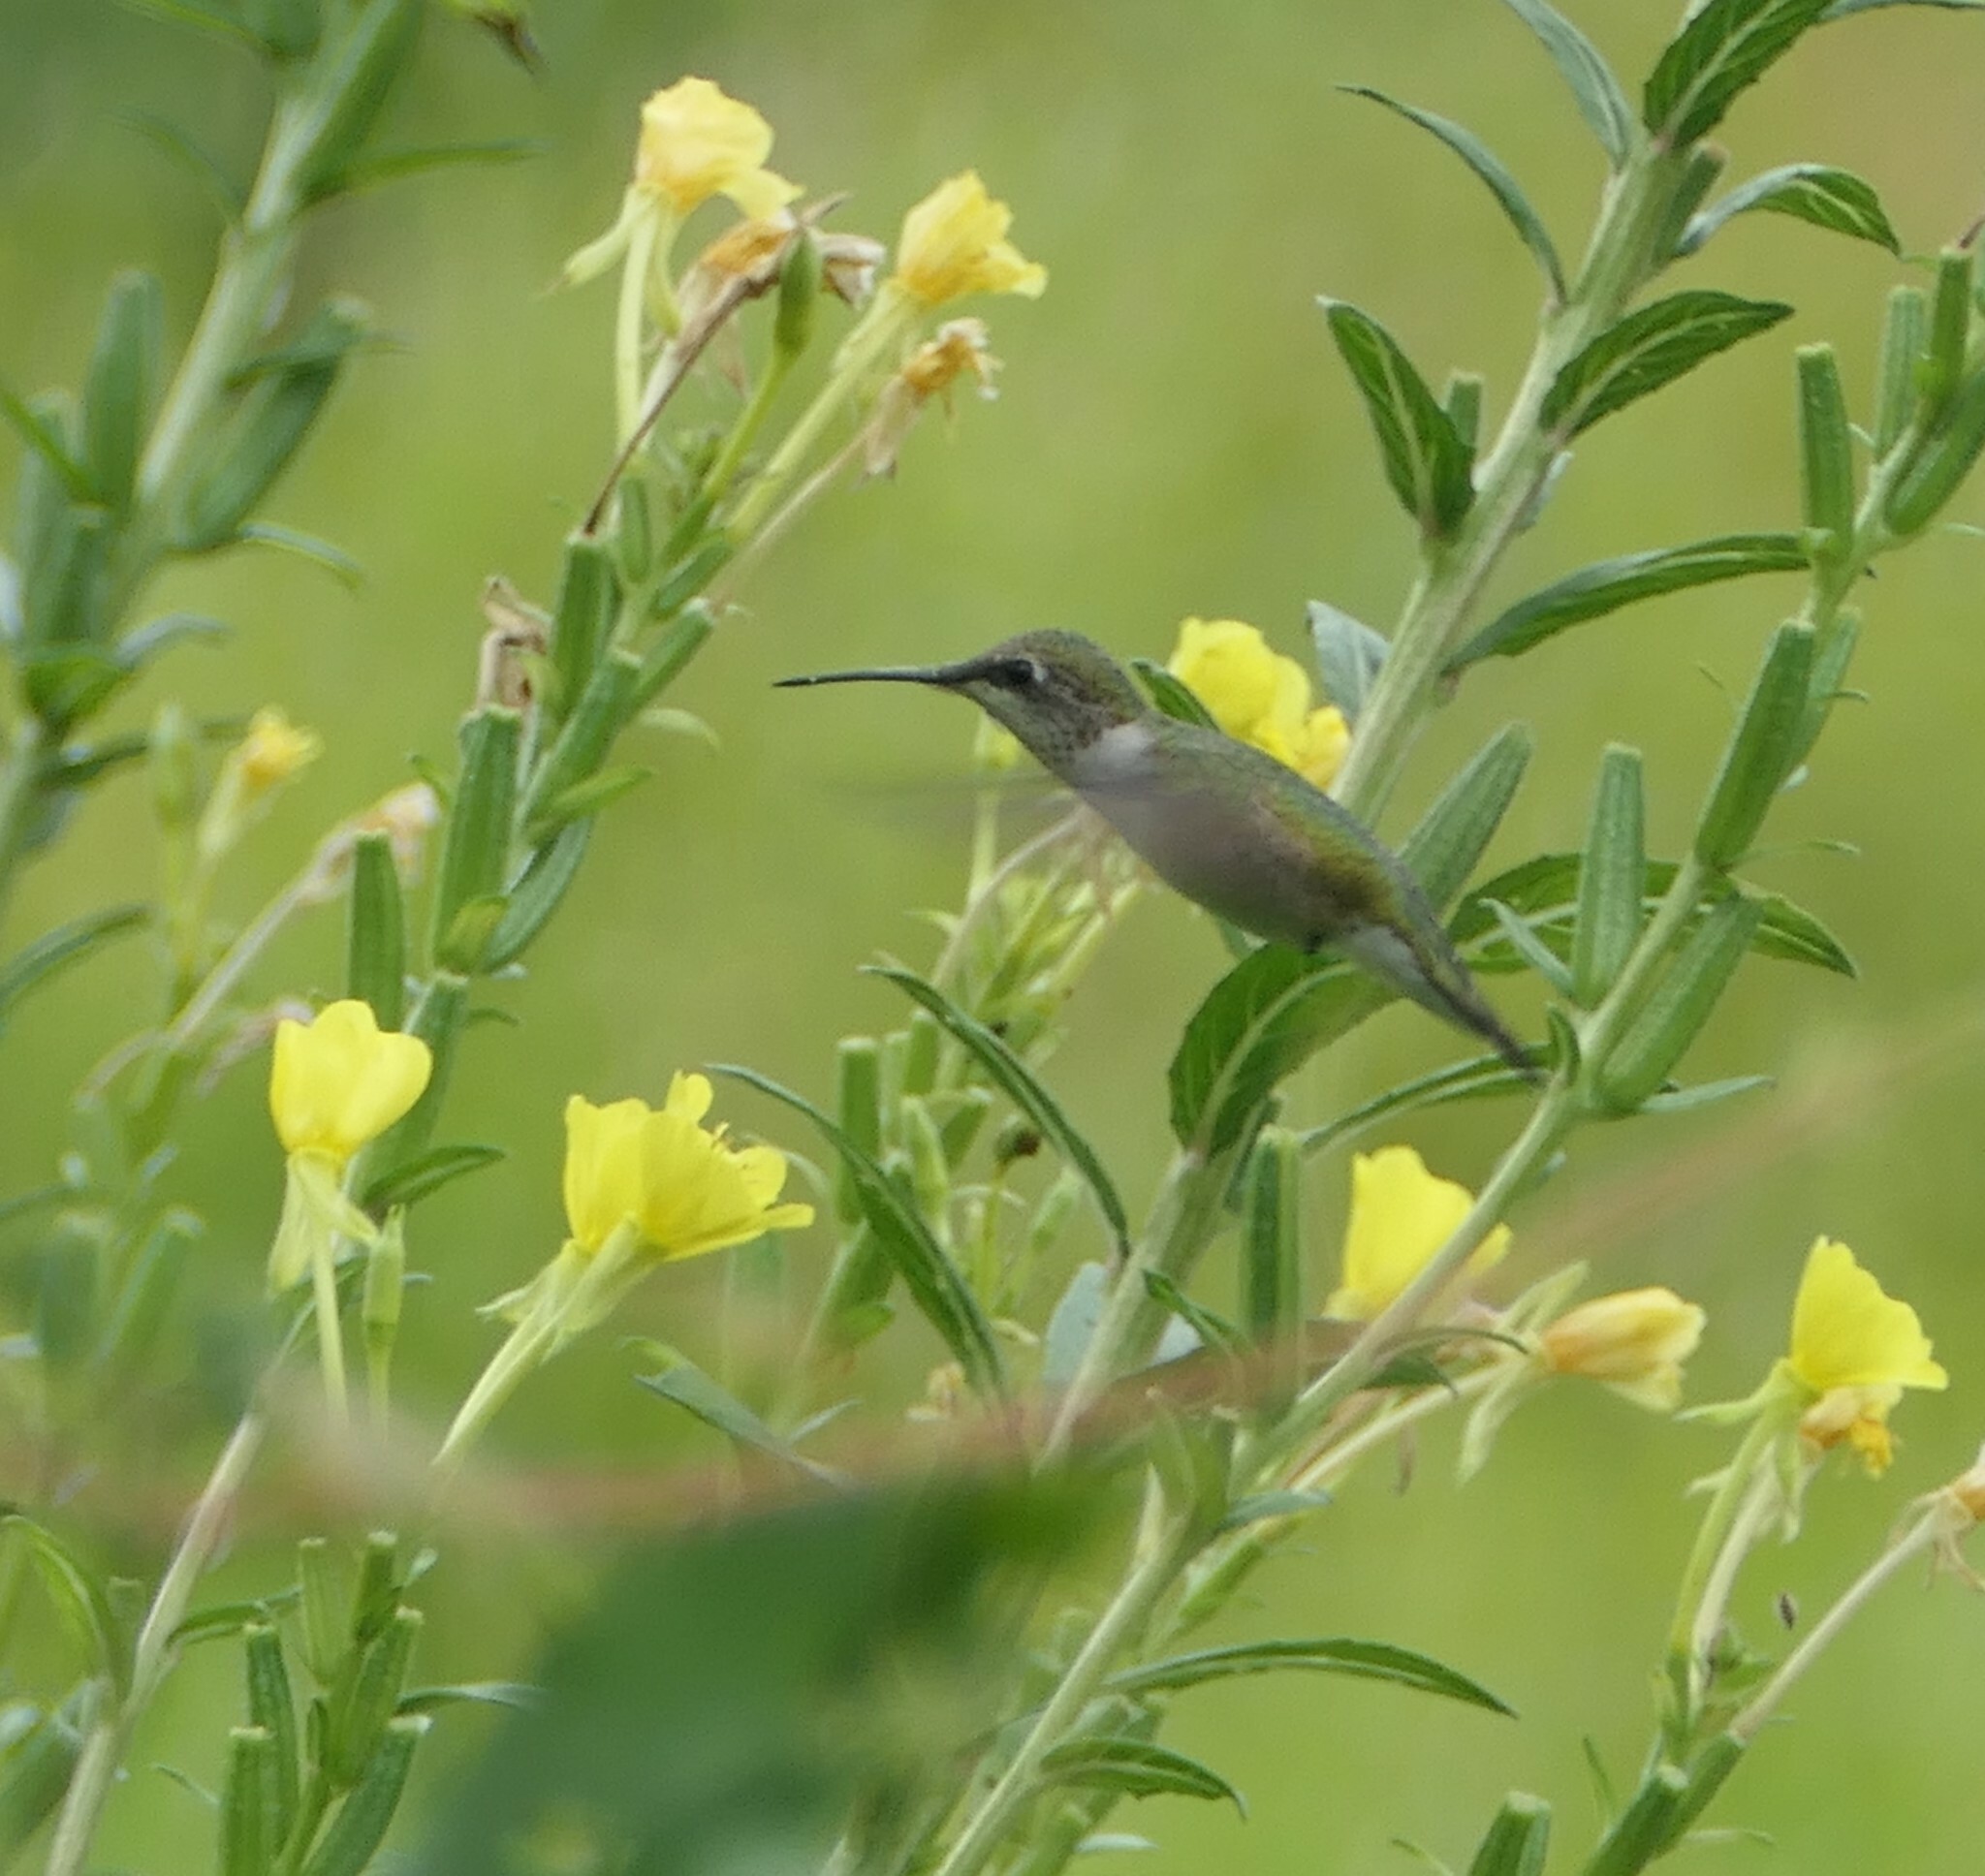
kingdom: Plantae
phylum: Tracheophyta
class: Magnoliopsida
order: Myrtales
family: Onagraceae
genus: Oenothera
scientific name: Oenothera biennis
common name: Common evening-primrose
